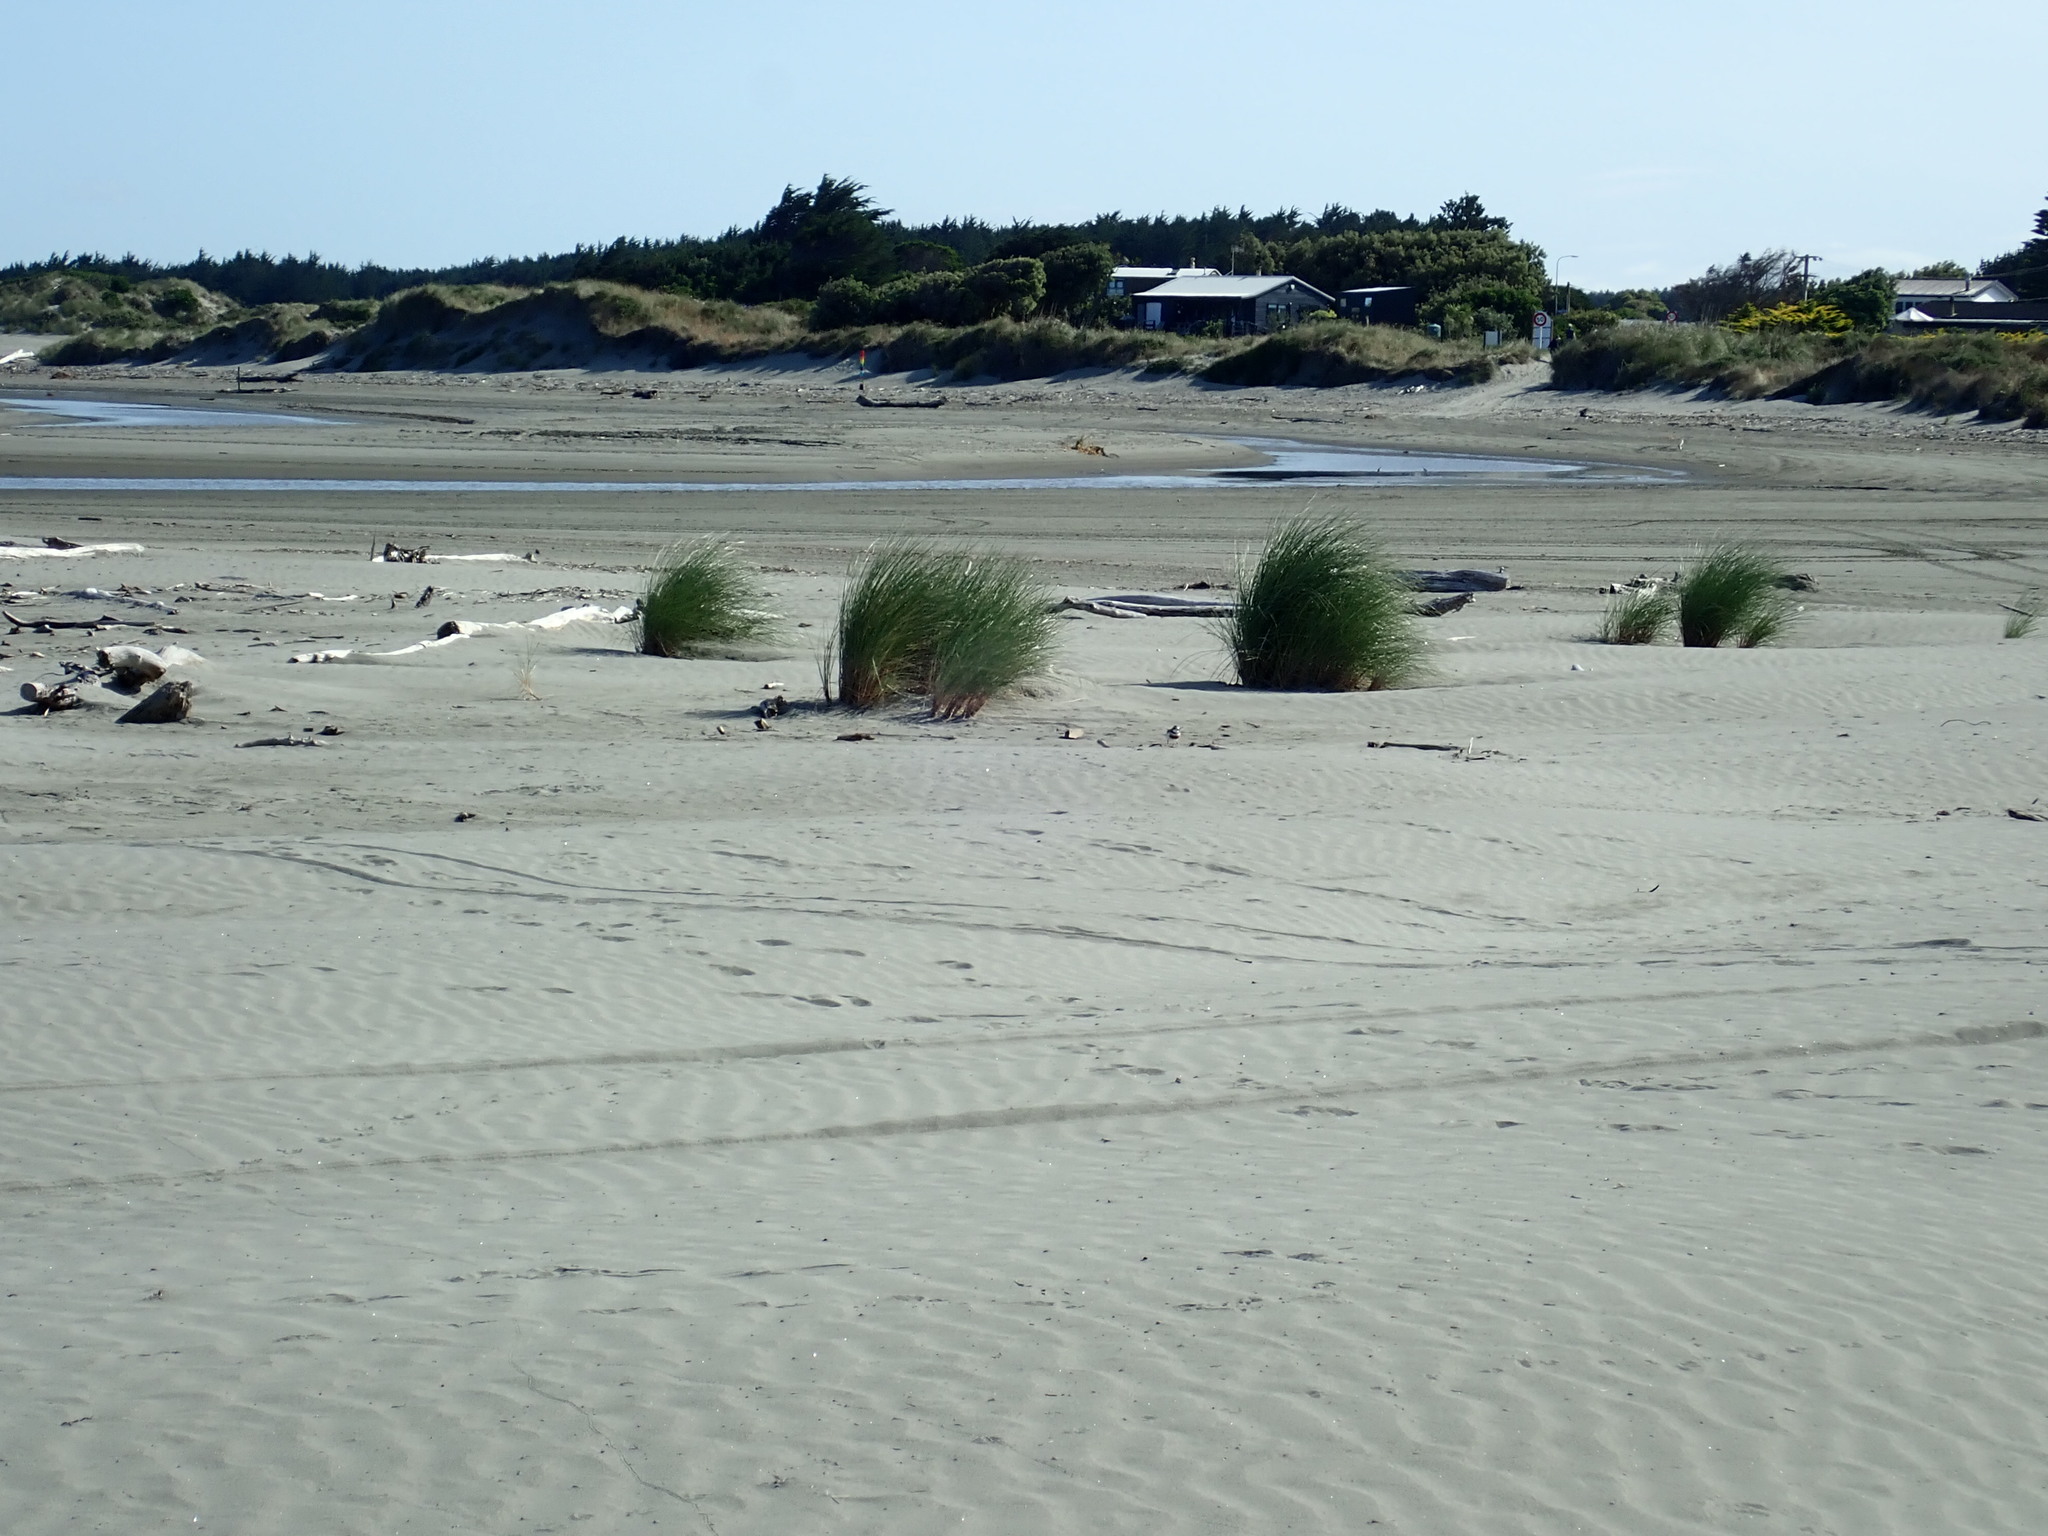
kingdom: Animalia
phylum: Chordata
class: Aves
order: Charadriiformes
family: Charadriidae
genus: Anarhynchus
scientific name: Anarhynchus
